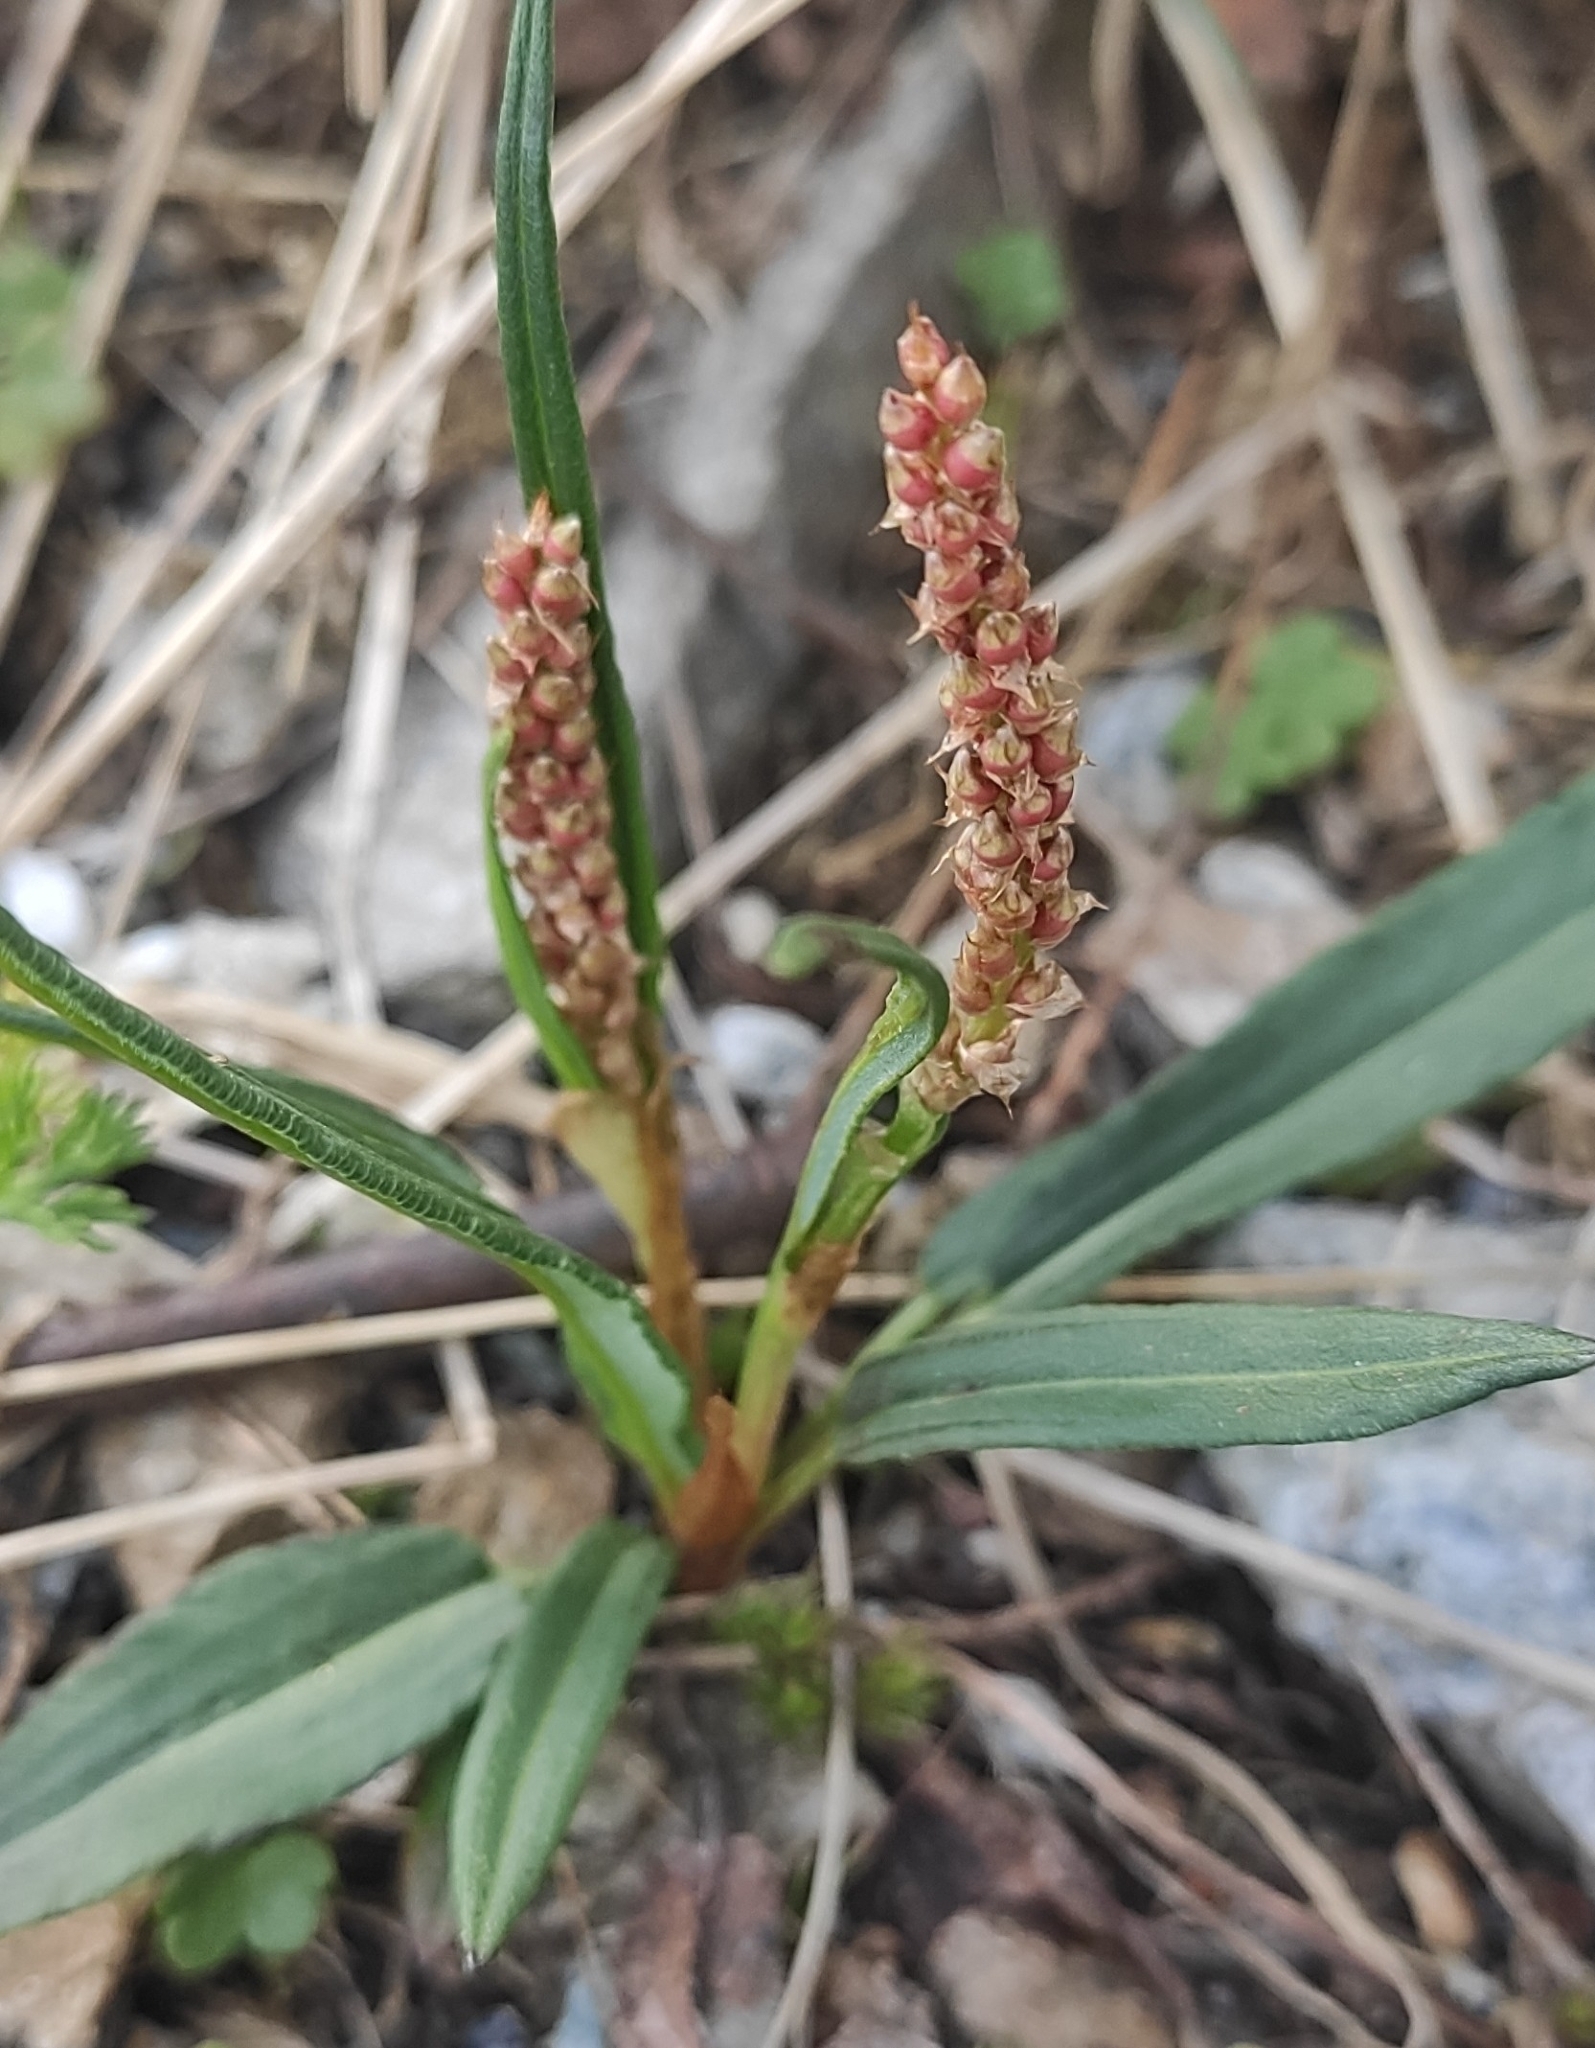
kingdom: Plantae
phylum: Tracheophyta
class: Magnoliopsida
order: Caryophyllales
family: Polygonaceae
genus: Bistorta
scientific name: Bistorta vivipara
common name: Alpine bistort
